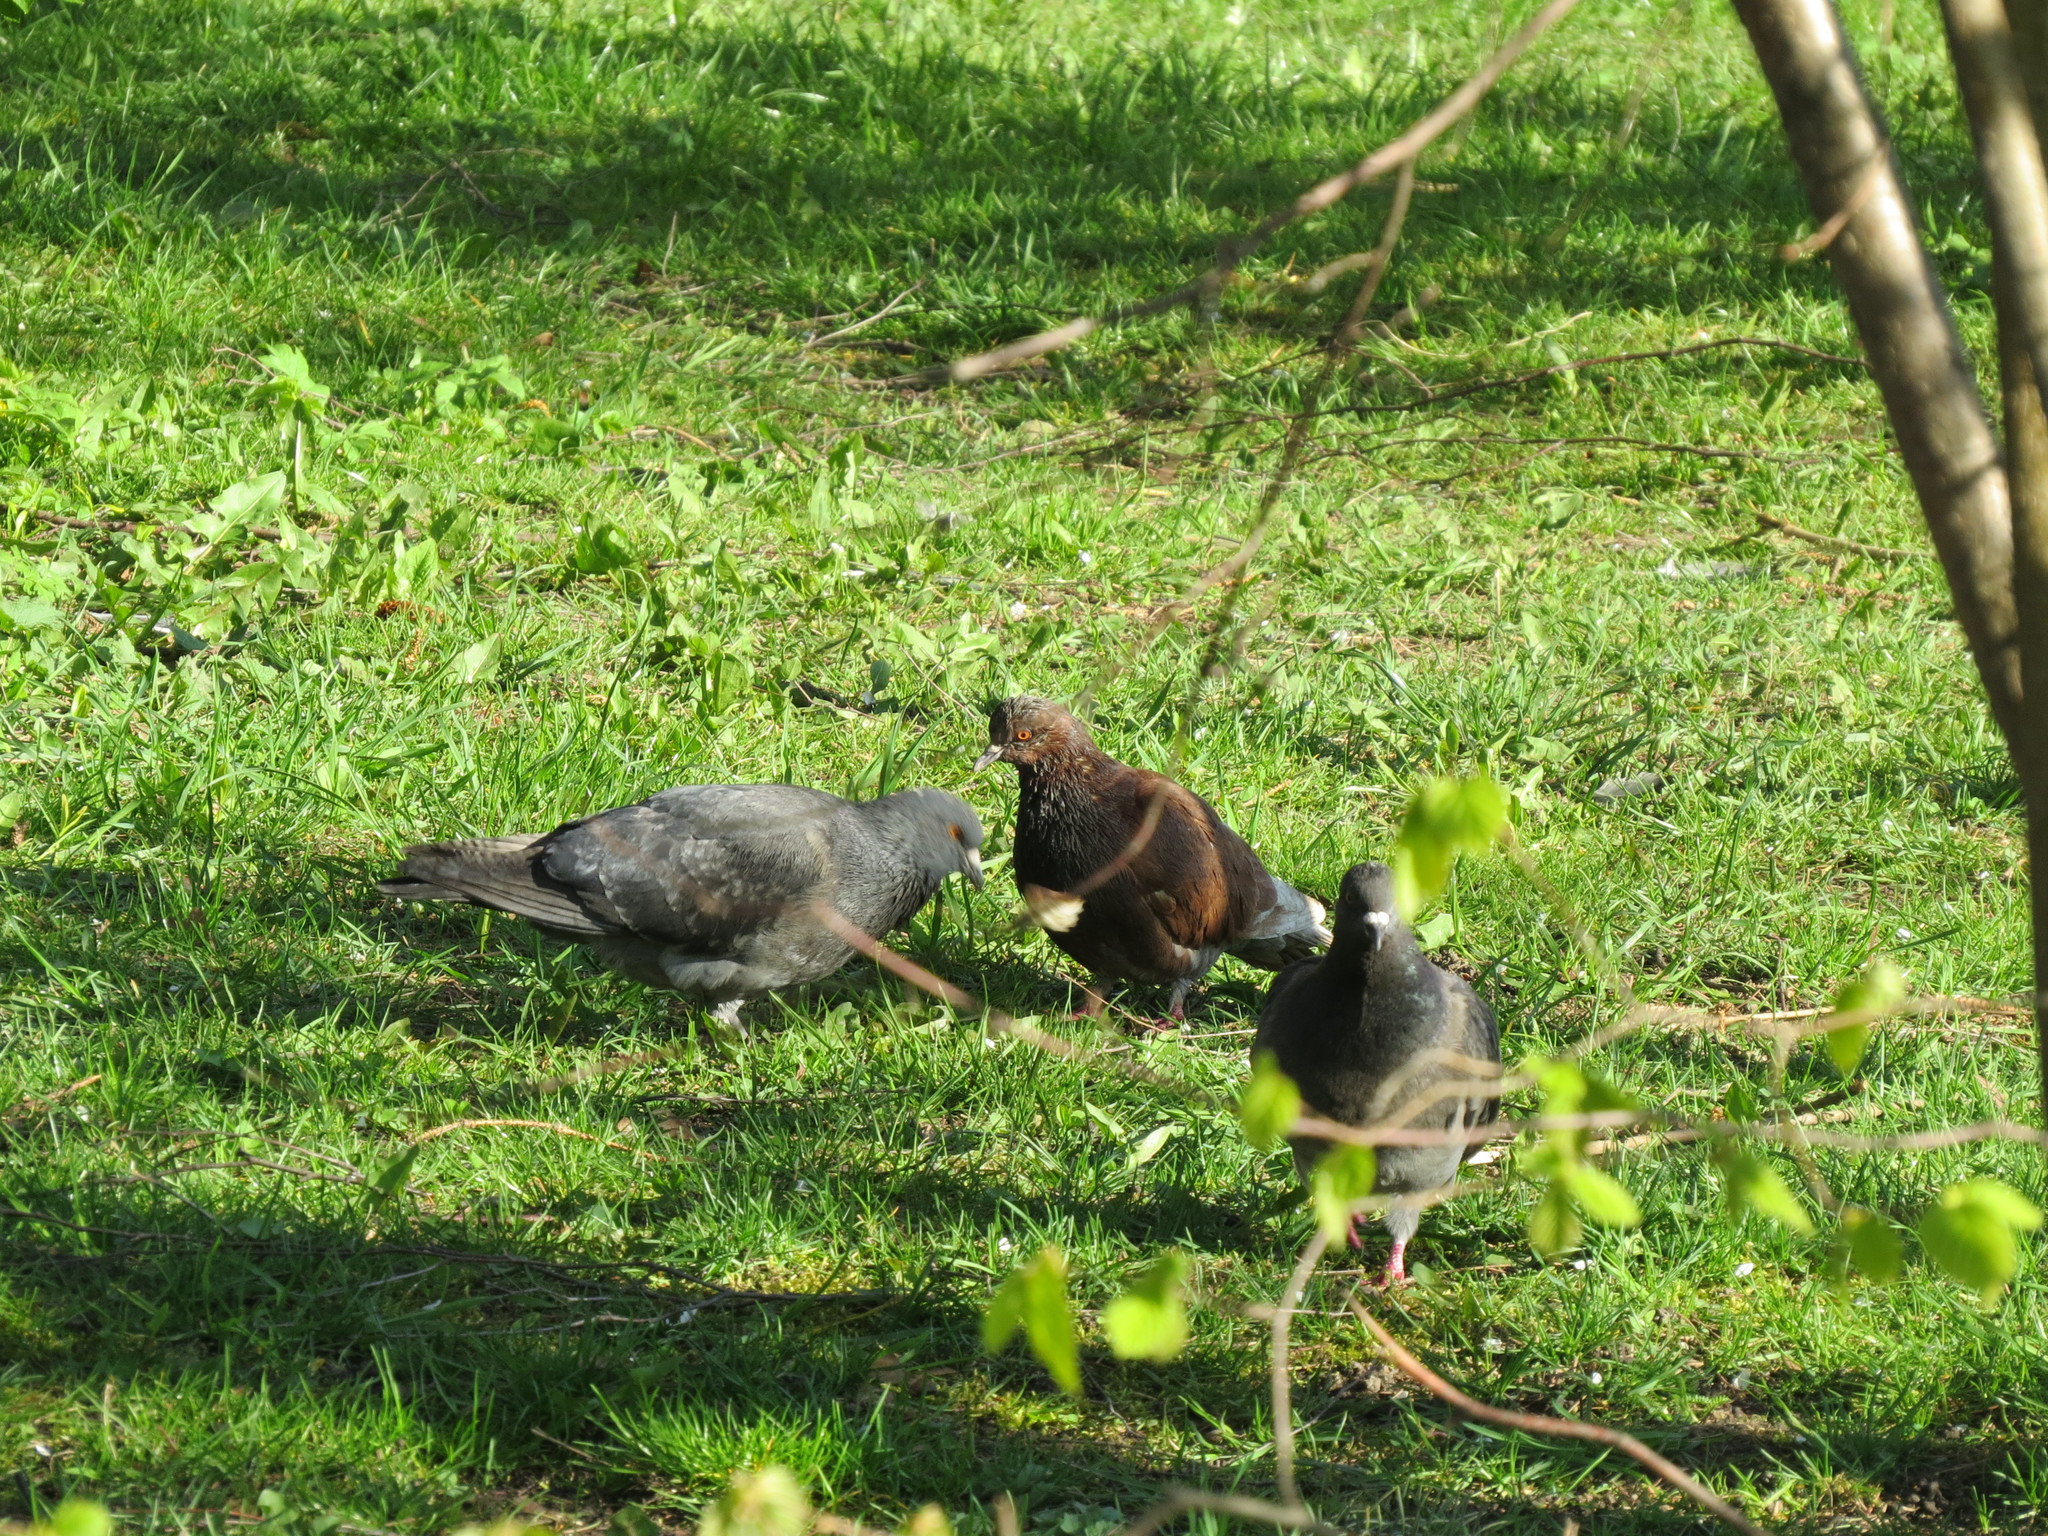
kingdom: Animalia
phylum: Chordata
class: Aves
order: Columbiformes
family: Columbidae
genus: Columba
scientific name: Columba livia
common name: Rock pigeon
